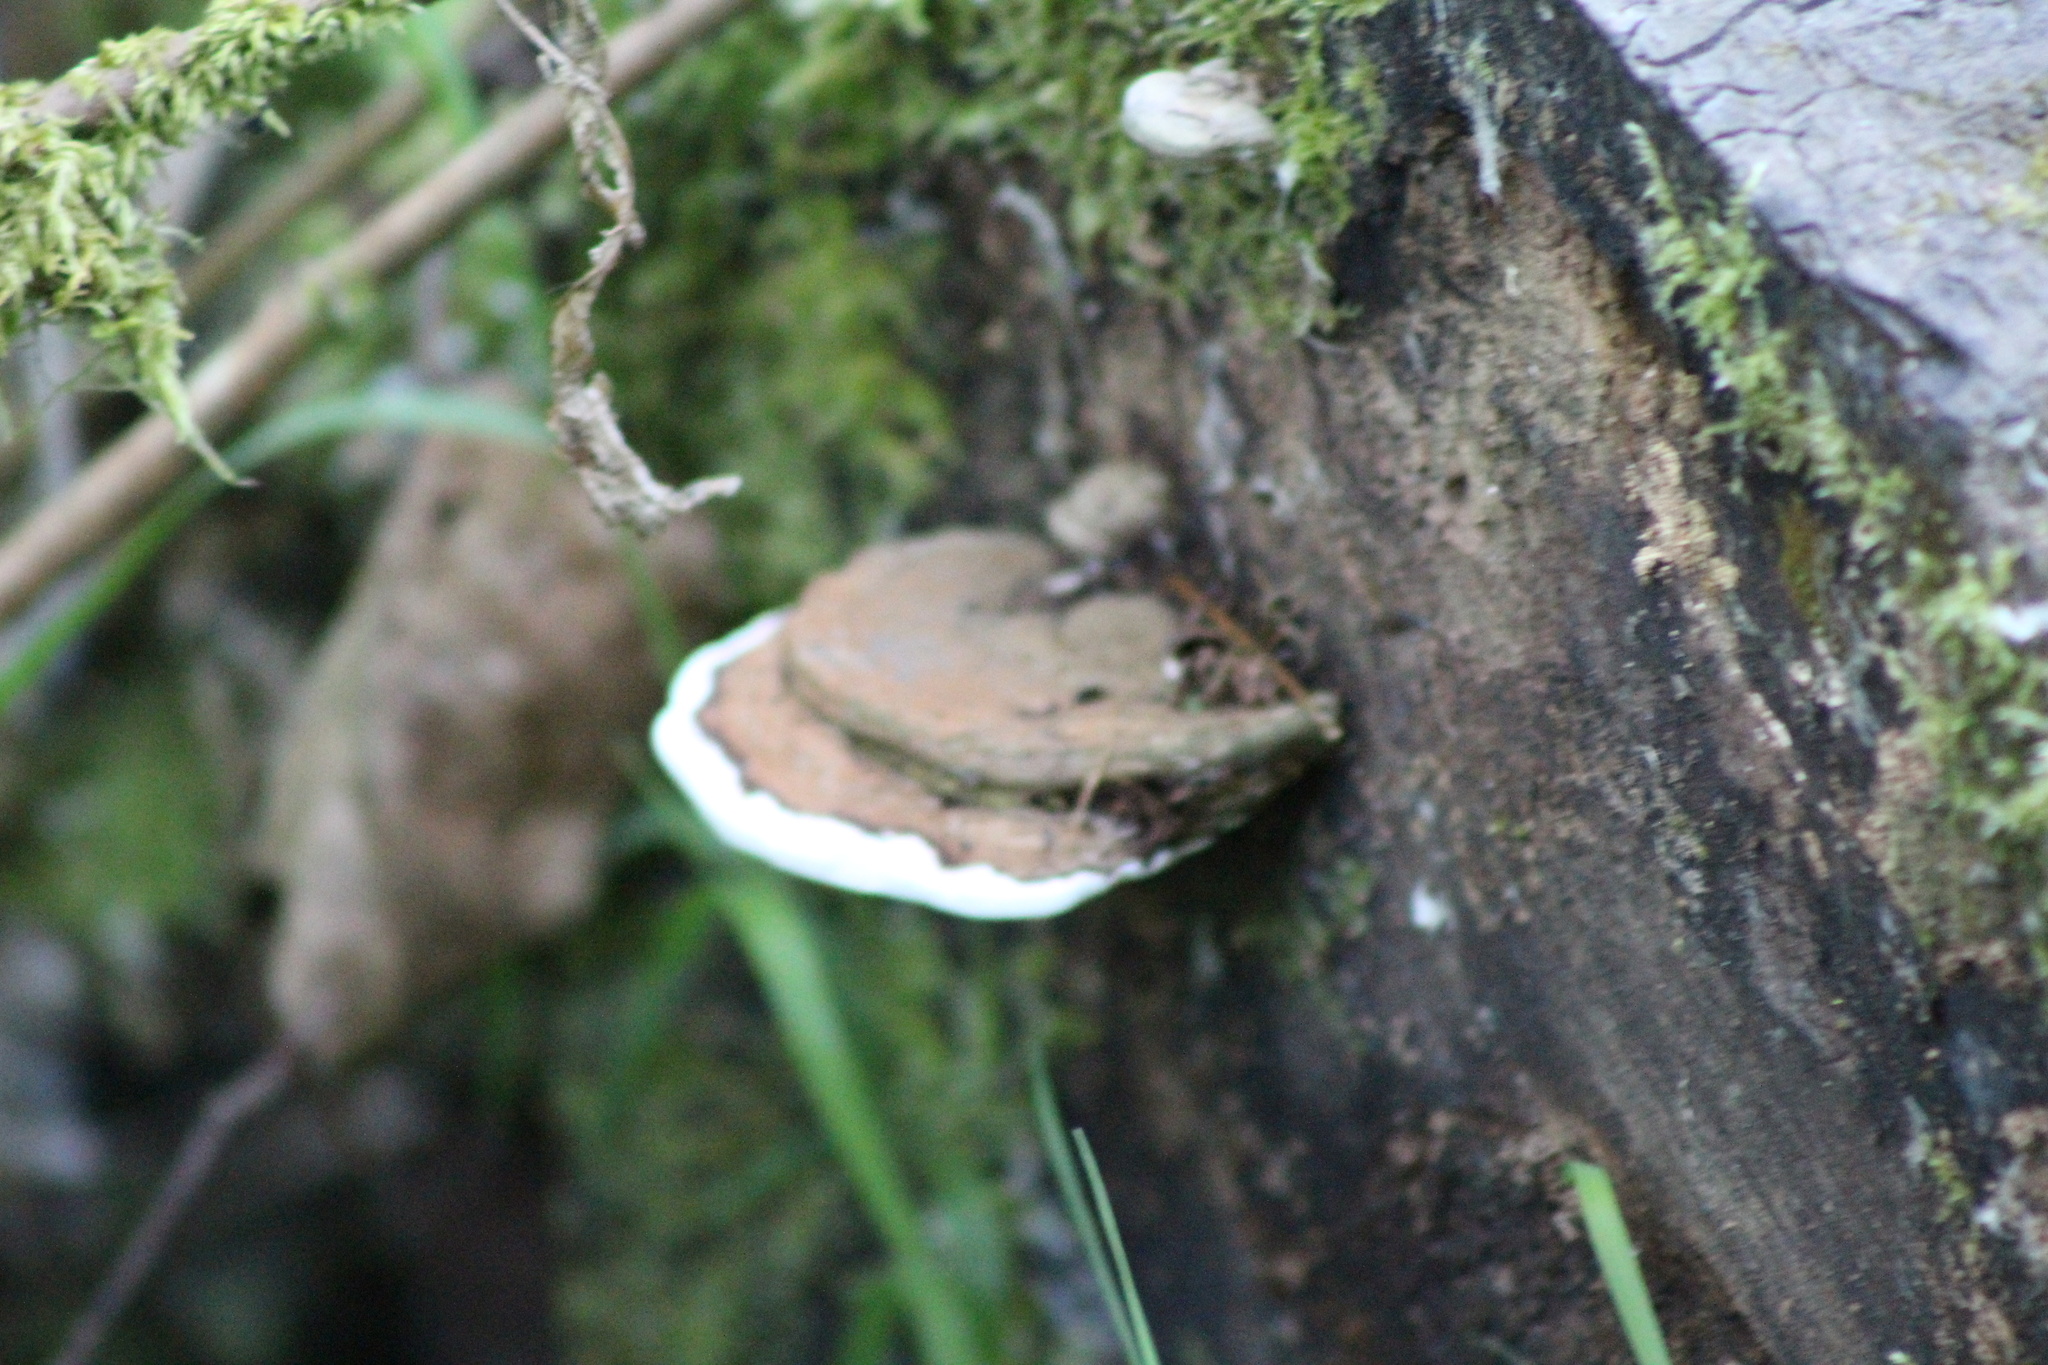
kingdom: Fungi
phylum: Basidiomycota
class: Agaricomycetes
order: Polyporales
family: Polyporaceae
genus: Ganoderma
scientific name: Ganoderma applanatum
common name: Artist's bracket
